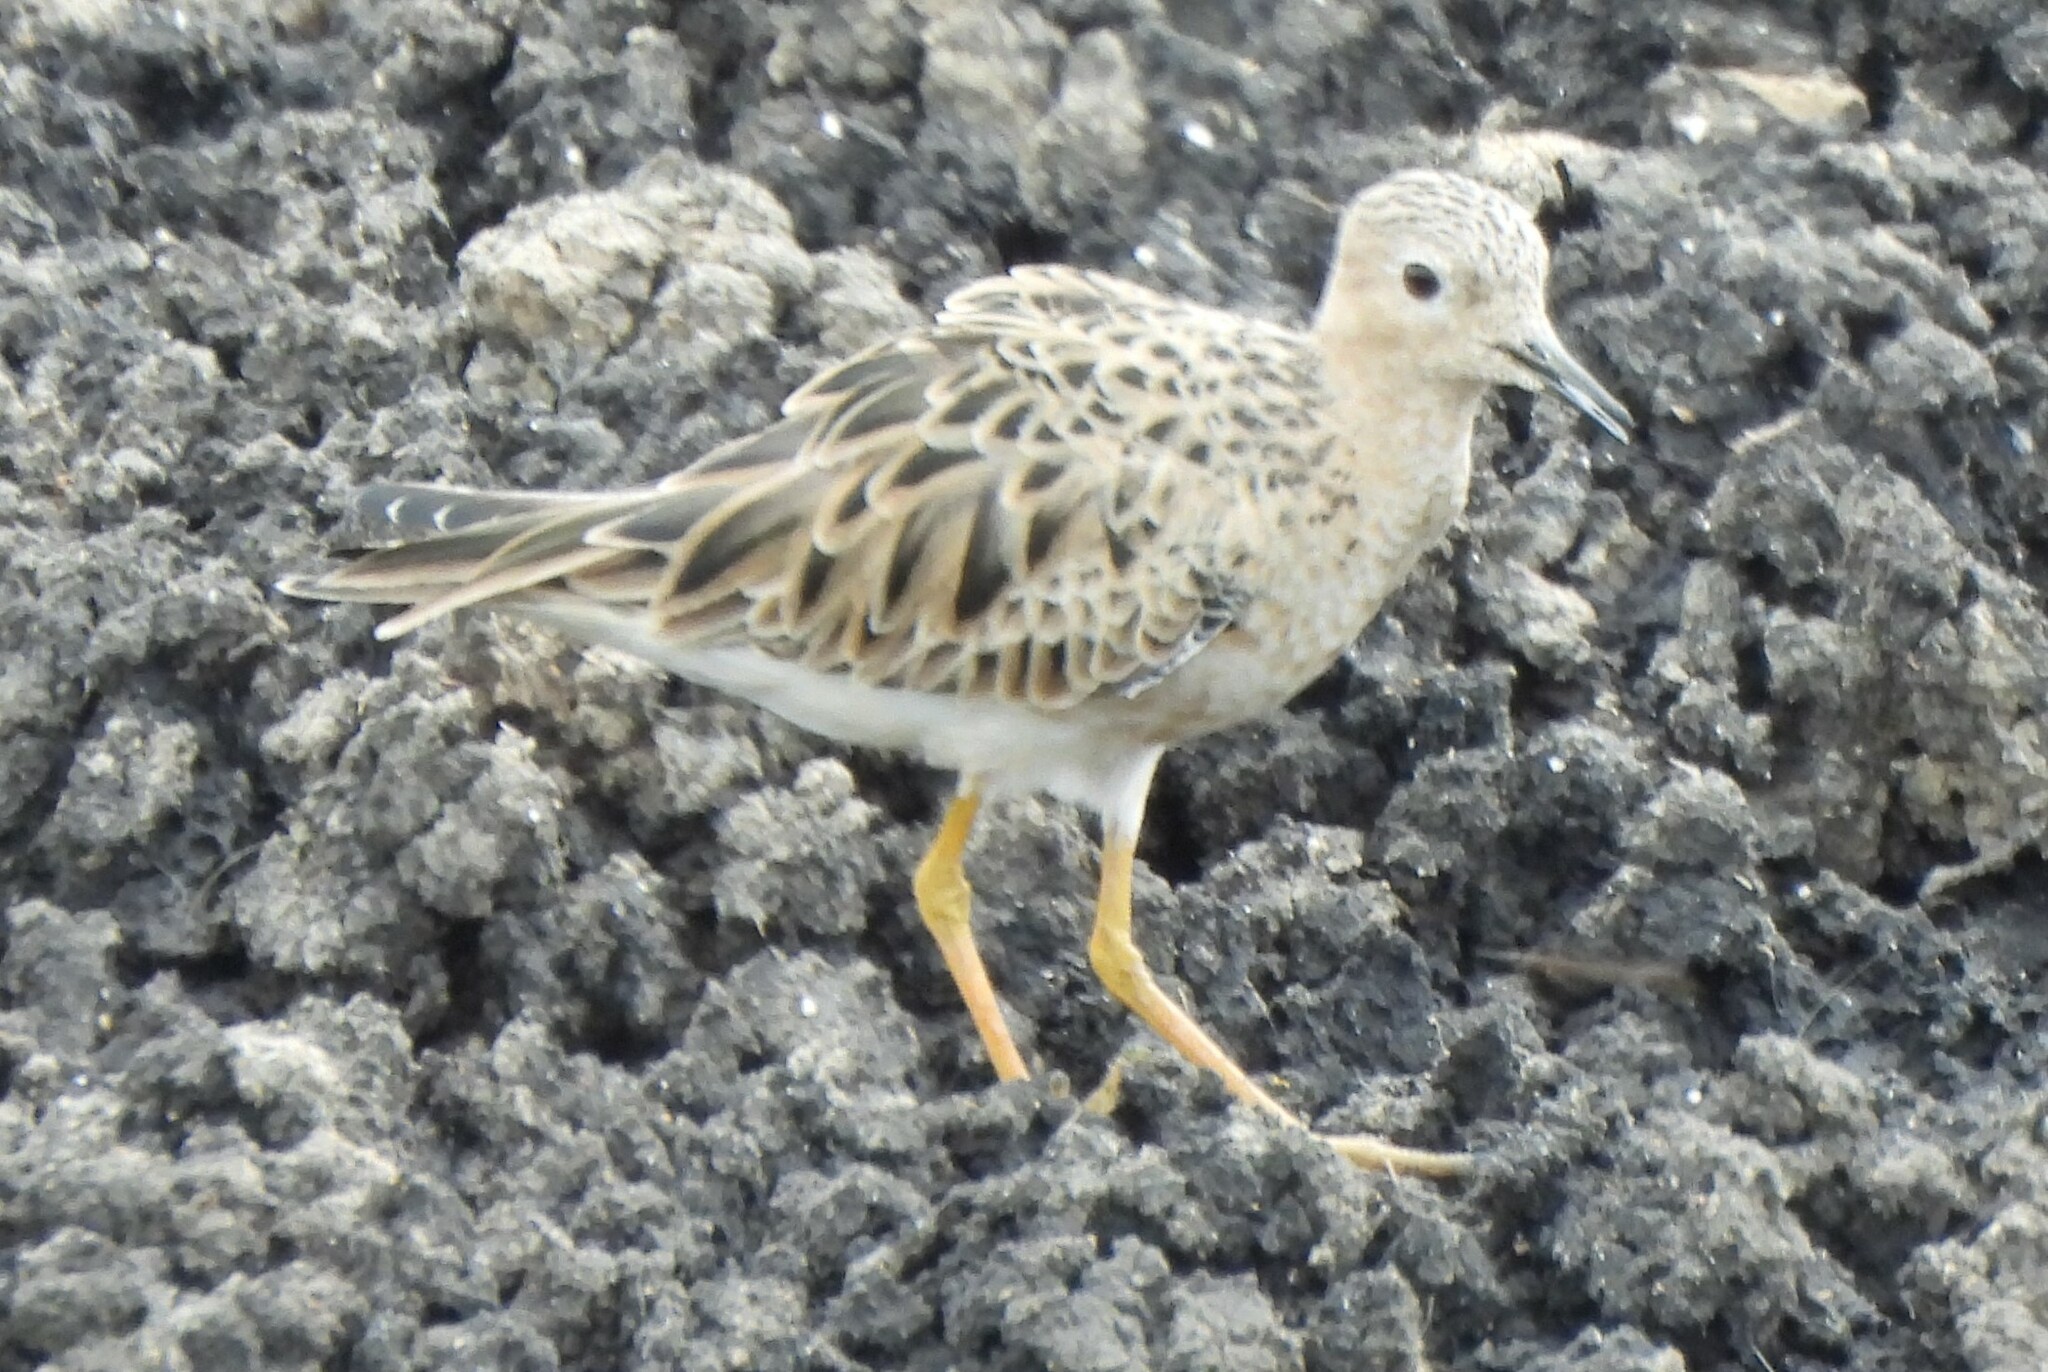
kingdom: Animalia
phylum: Chordata
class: Aves
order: Charadriiformes
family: Scolopacidae
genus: Calidris
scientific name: Calidris subruficollis
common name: Buff-breasted sandpiper
